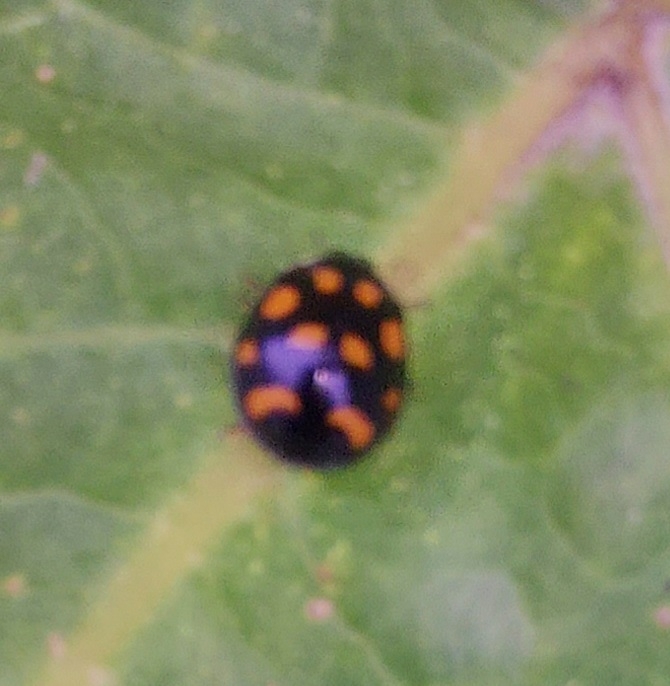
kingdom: Animalia
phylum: Arthropoda
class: Insecta
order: Coleoptera
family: Coccinellidae
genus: Harmonia
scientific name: Harmonia axyridis
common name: Harlequin ladybird
